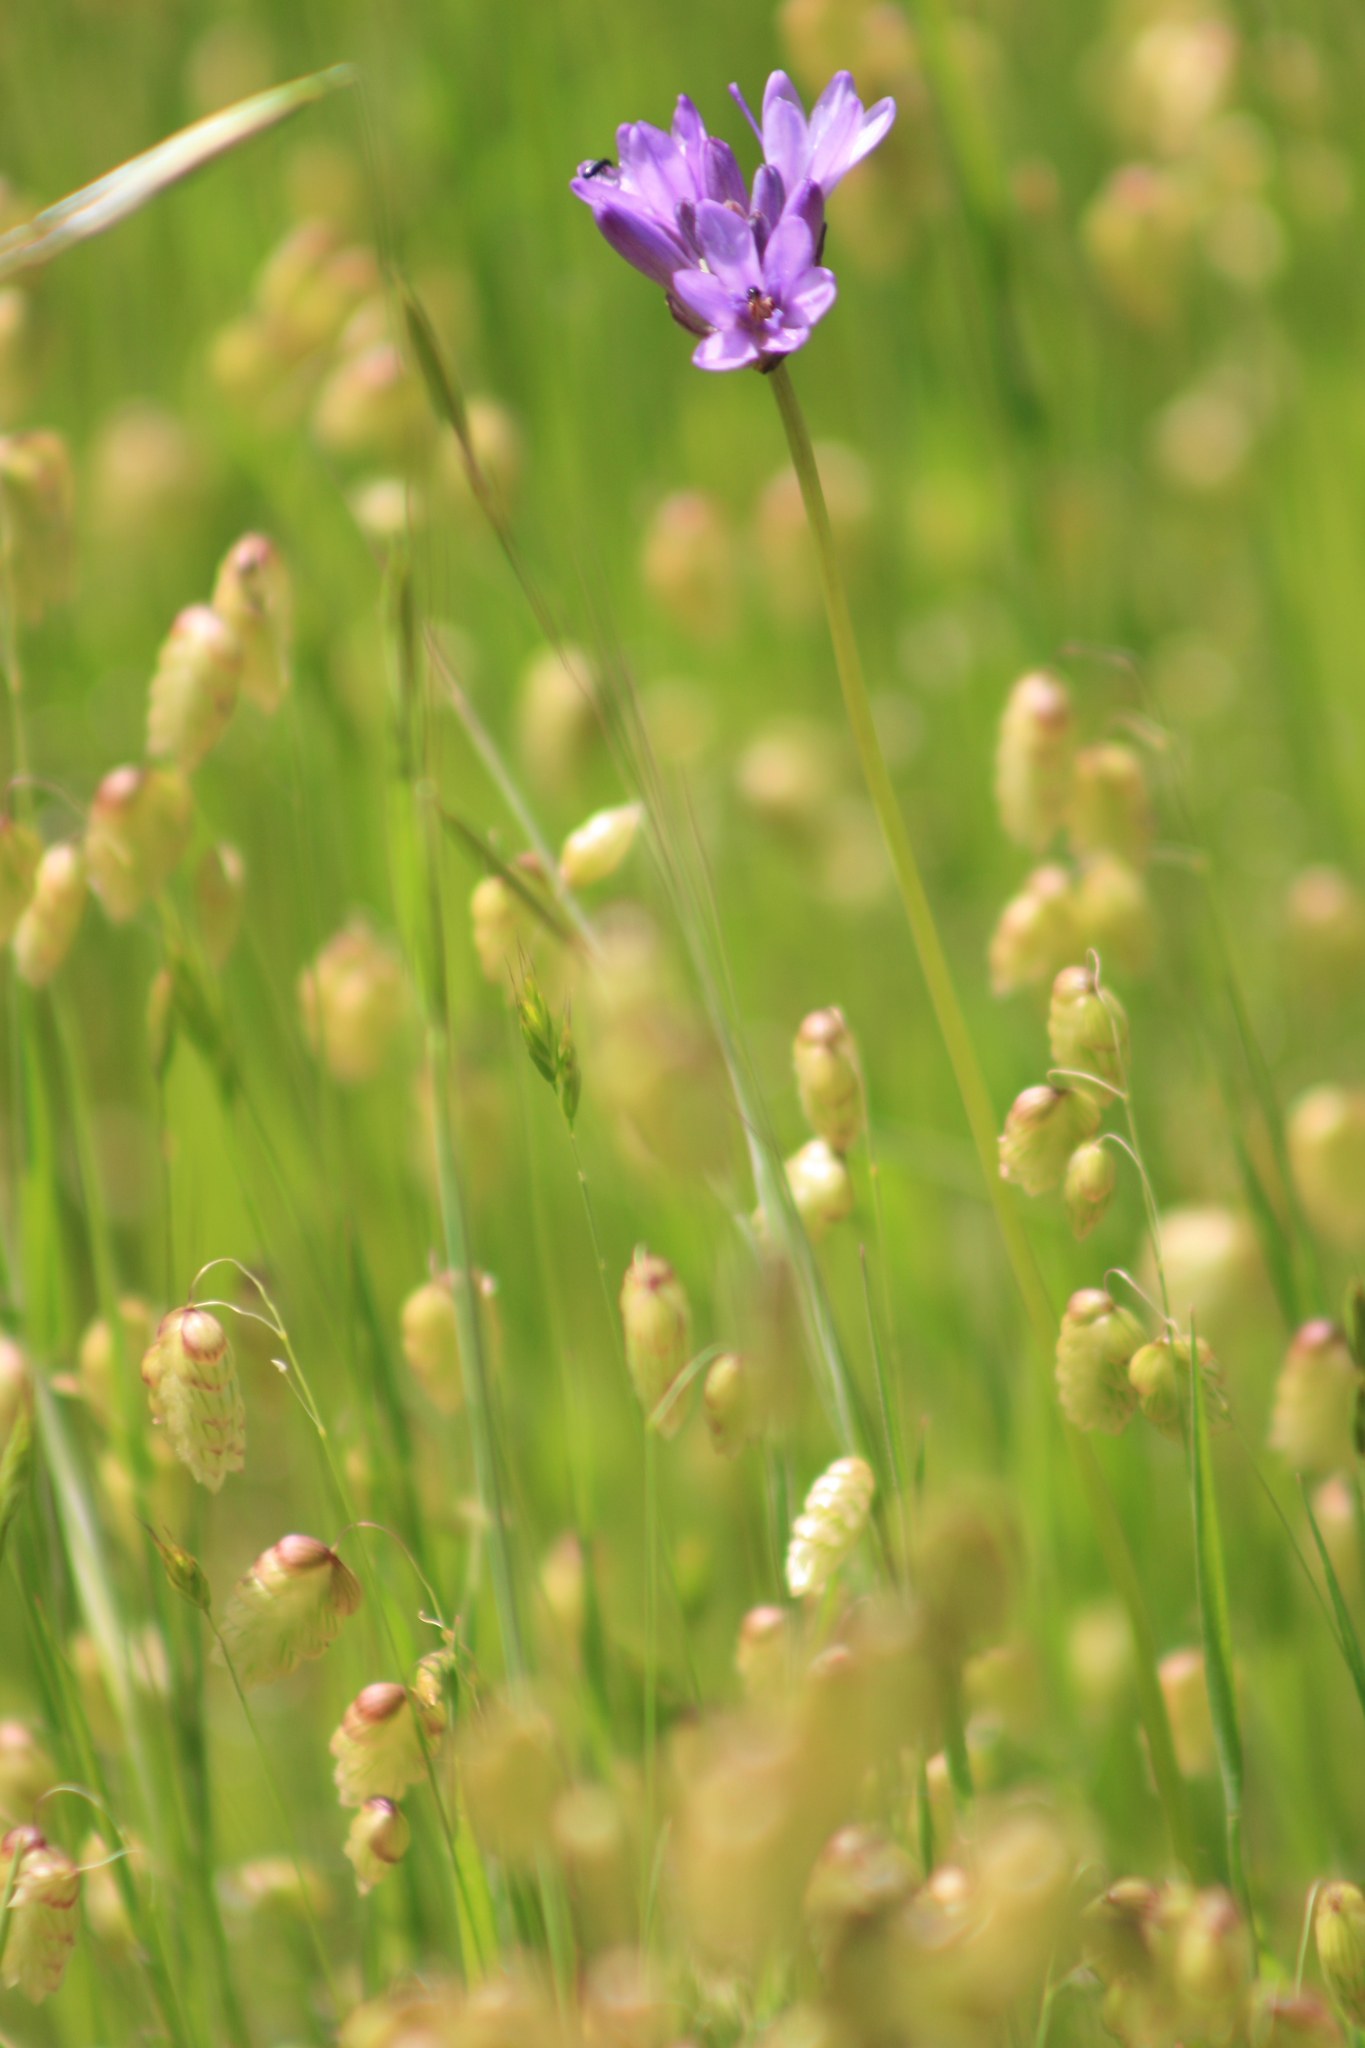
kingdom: Plantae
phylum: Tracheophyta
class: Liliopsida
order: Asparagales
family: Asparagaceae
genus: Dipterostemon
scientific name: Dipterostemon capitatus
